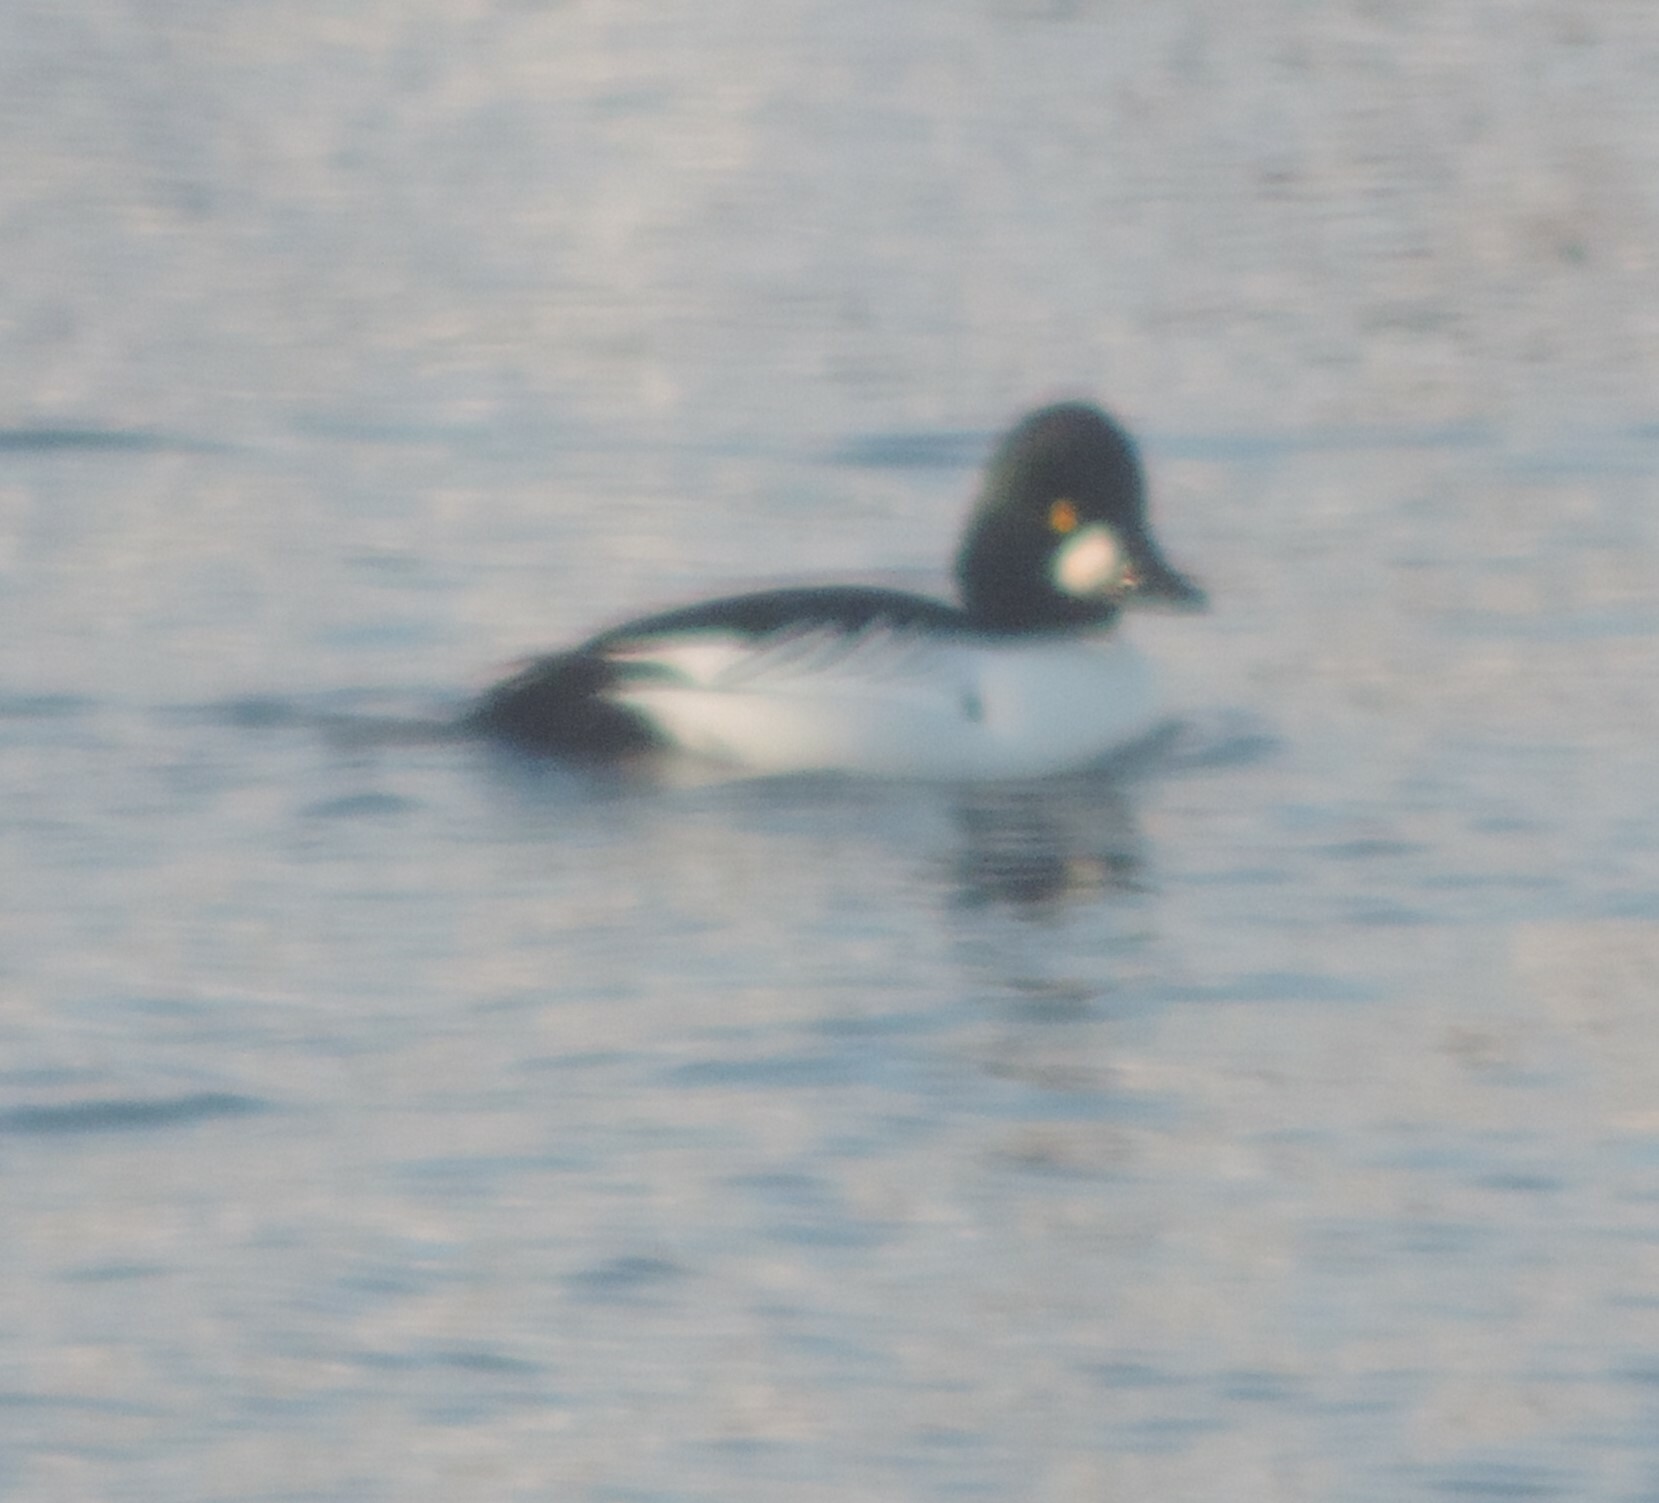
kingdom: Animalia
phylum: Chordata
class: Aves
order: Anseriformes
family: Anatidae
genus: Bucephala
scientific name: Bucephala clangula
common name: Common goldeneye
